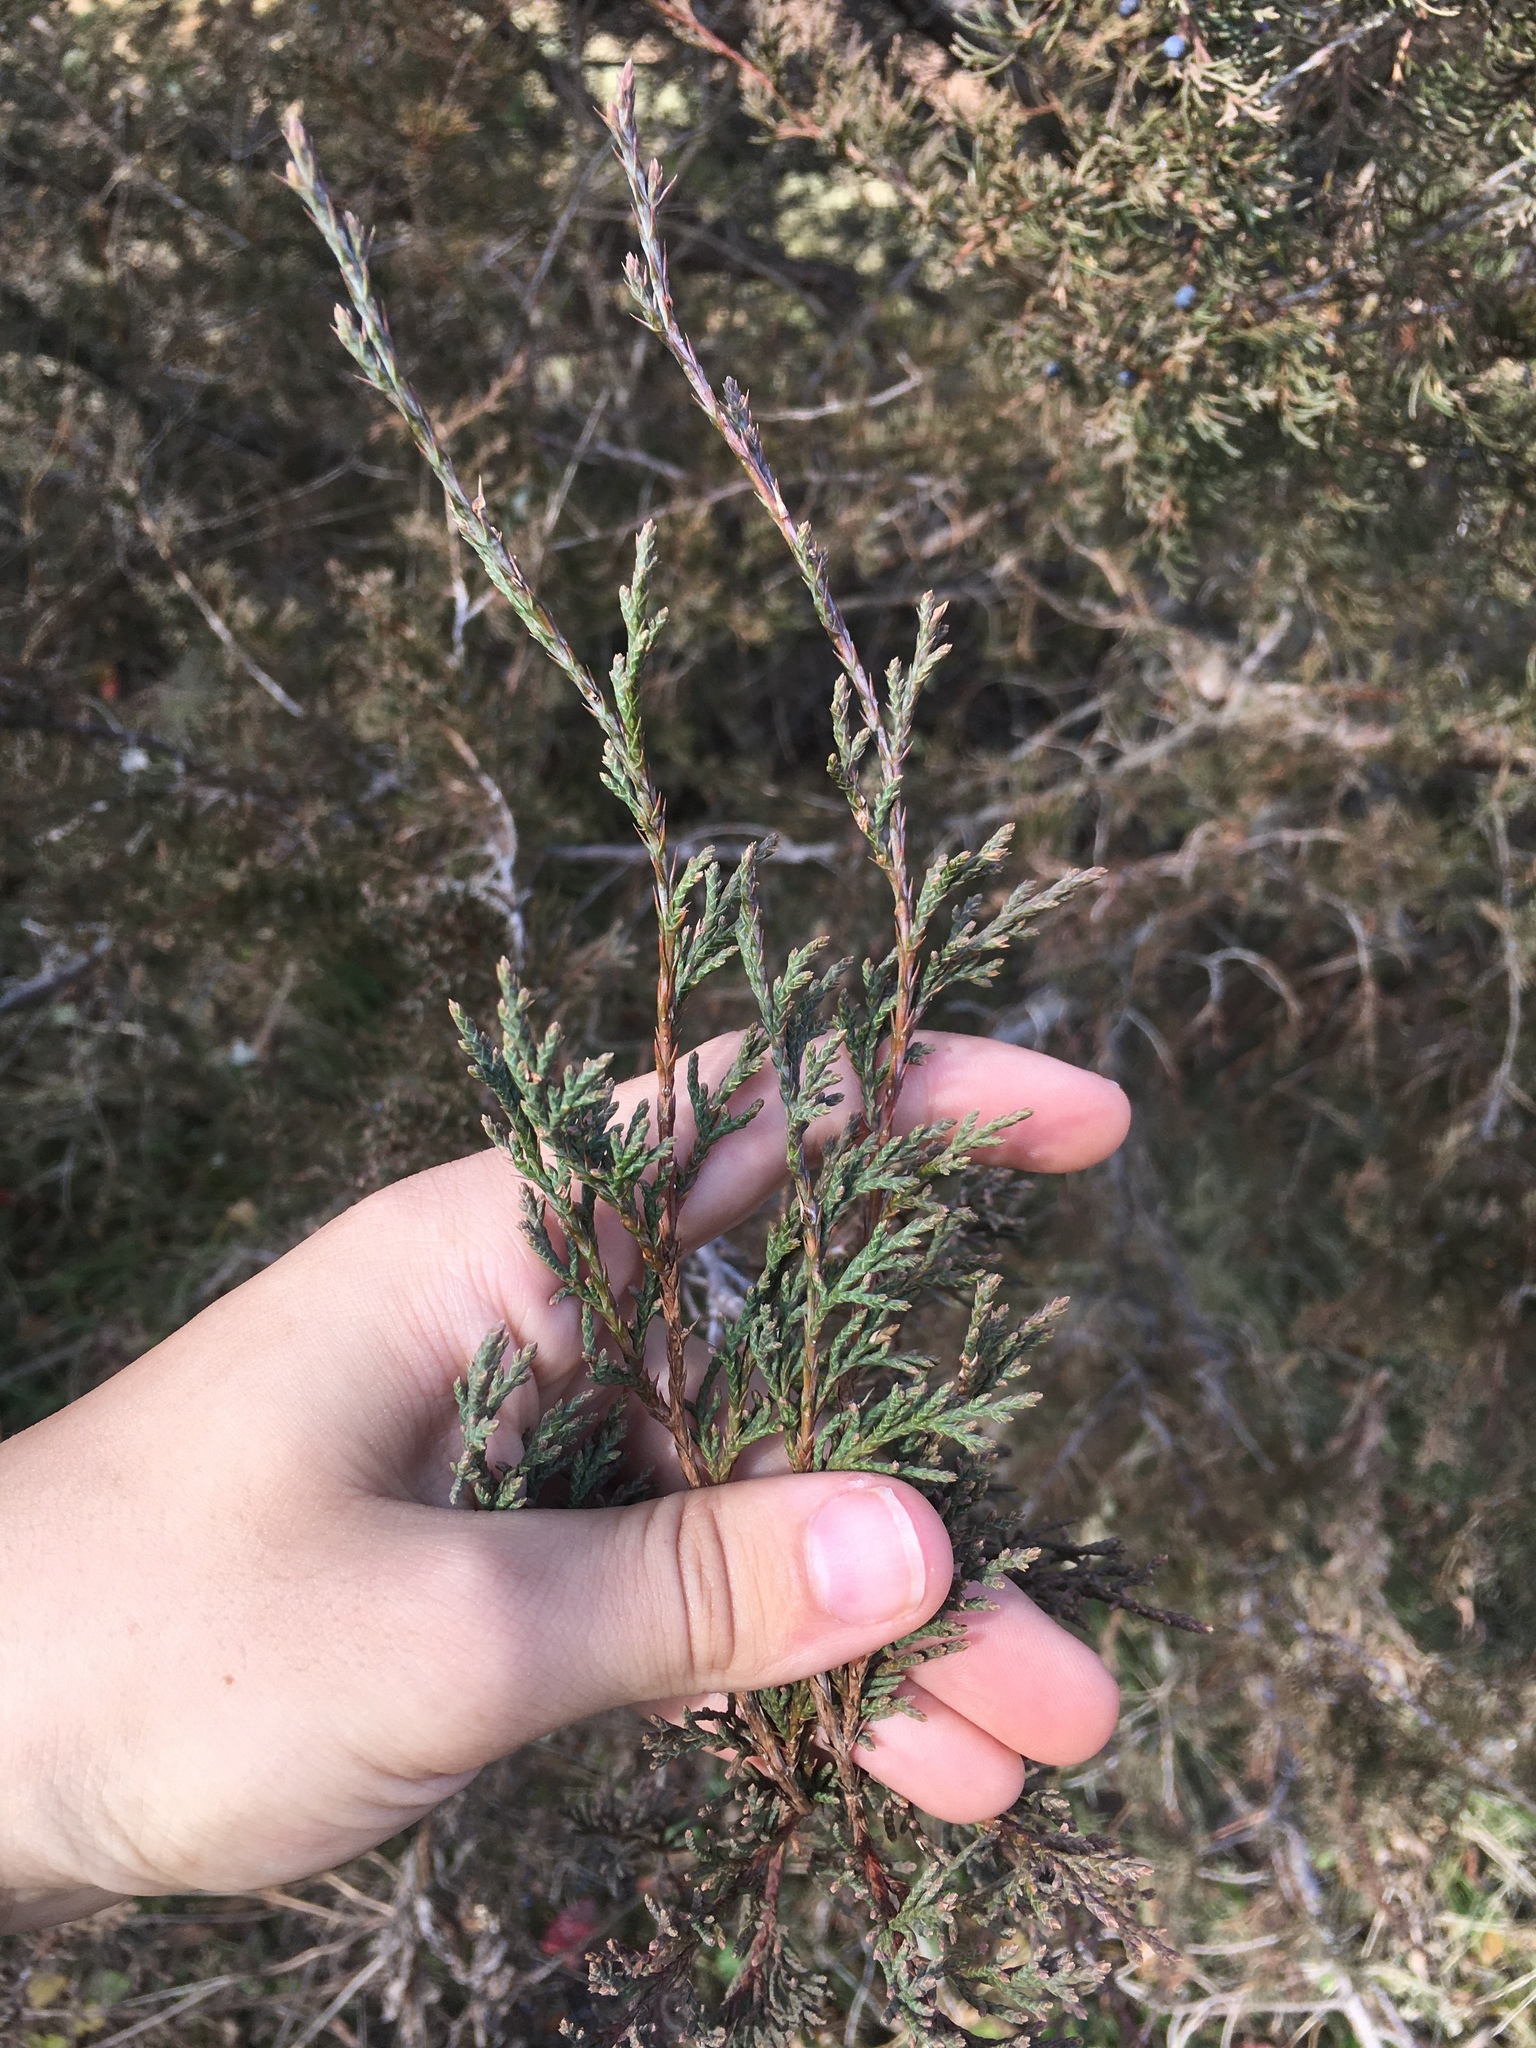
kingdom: Plantae
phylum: Tracheophyta
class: Pinopsida
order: Pinales
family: Cupressaceae
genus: Juniperus
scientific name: Juniperus virginiana
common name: Red juniper
